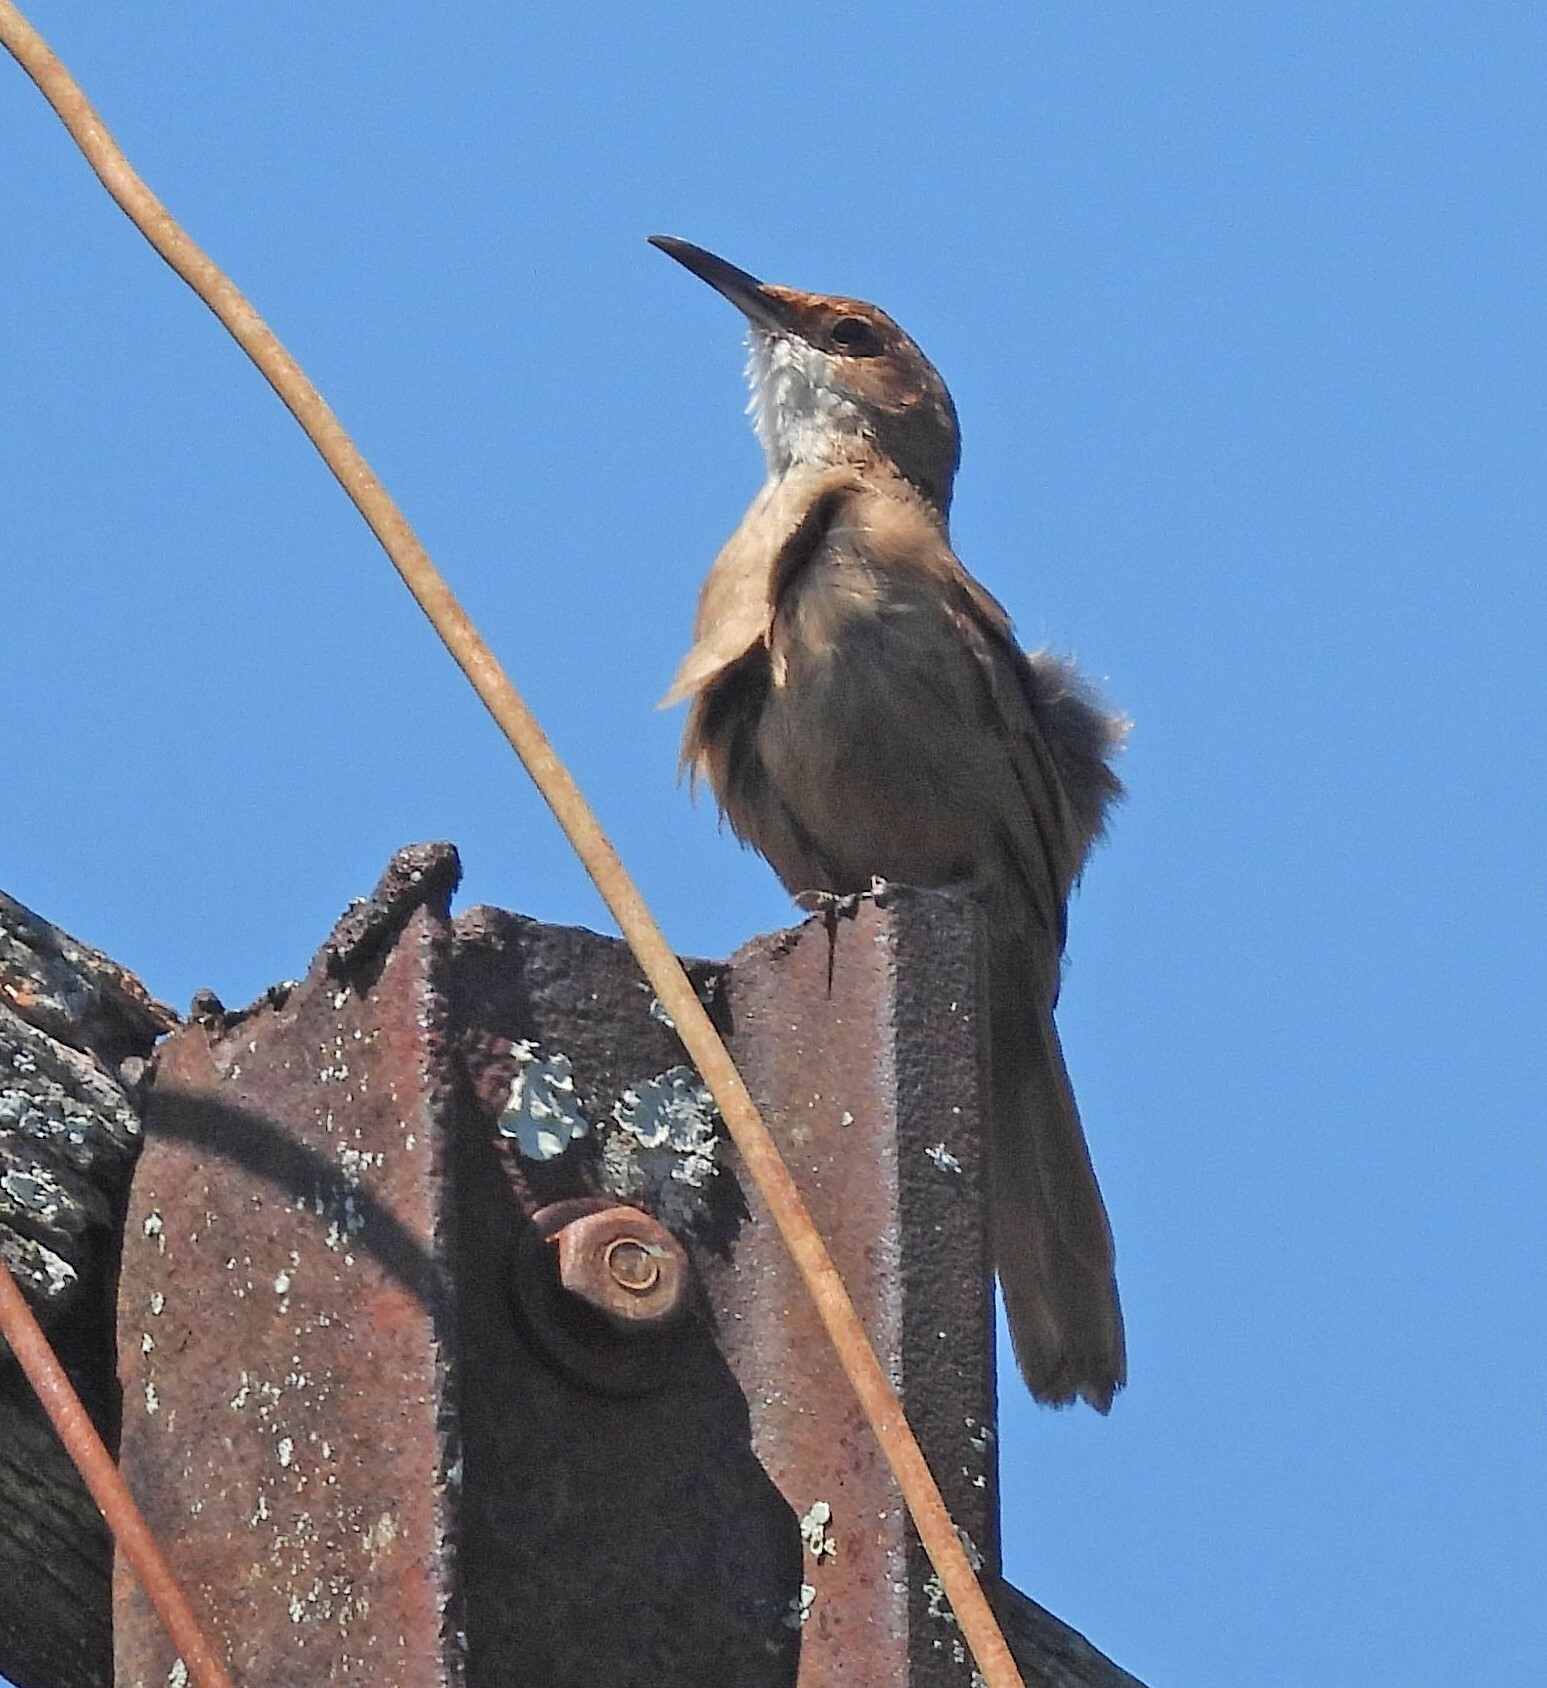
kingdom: Animalia
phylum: Chordata
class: Aves
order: Passeriformes
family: Furnariidae
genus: Upucerthia
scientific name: Upucerthia certhioides
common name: Chaco earthcreeper
